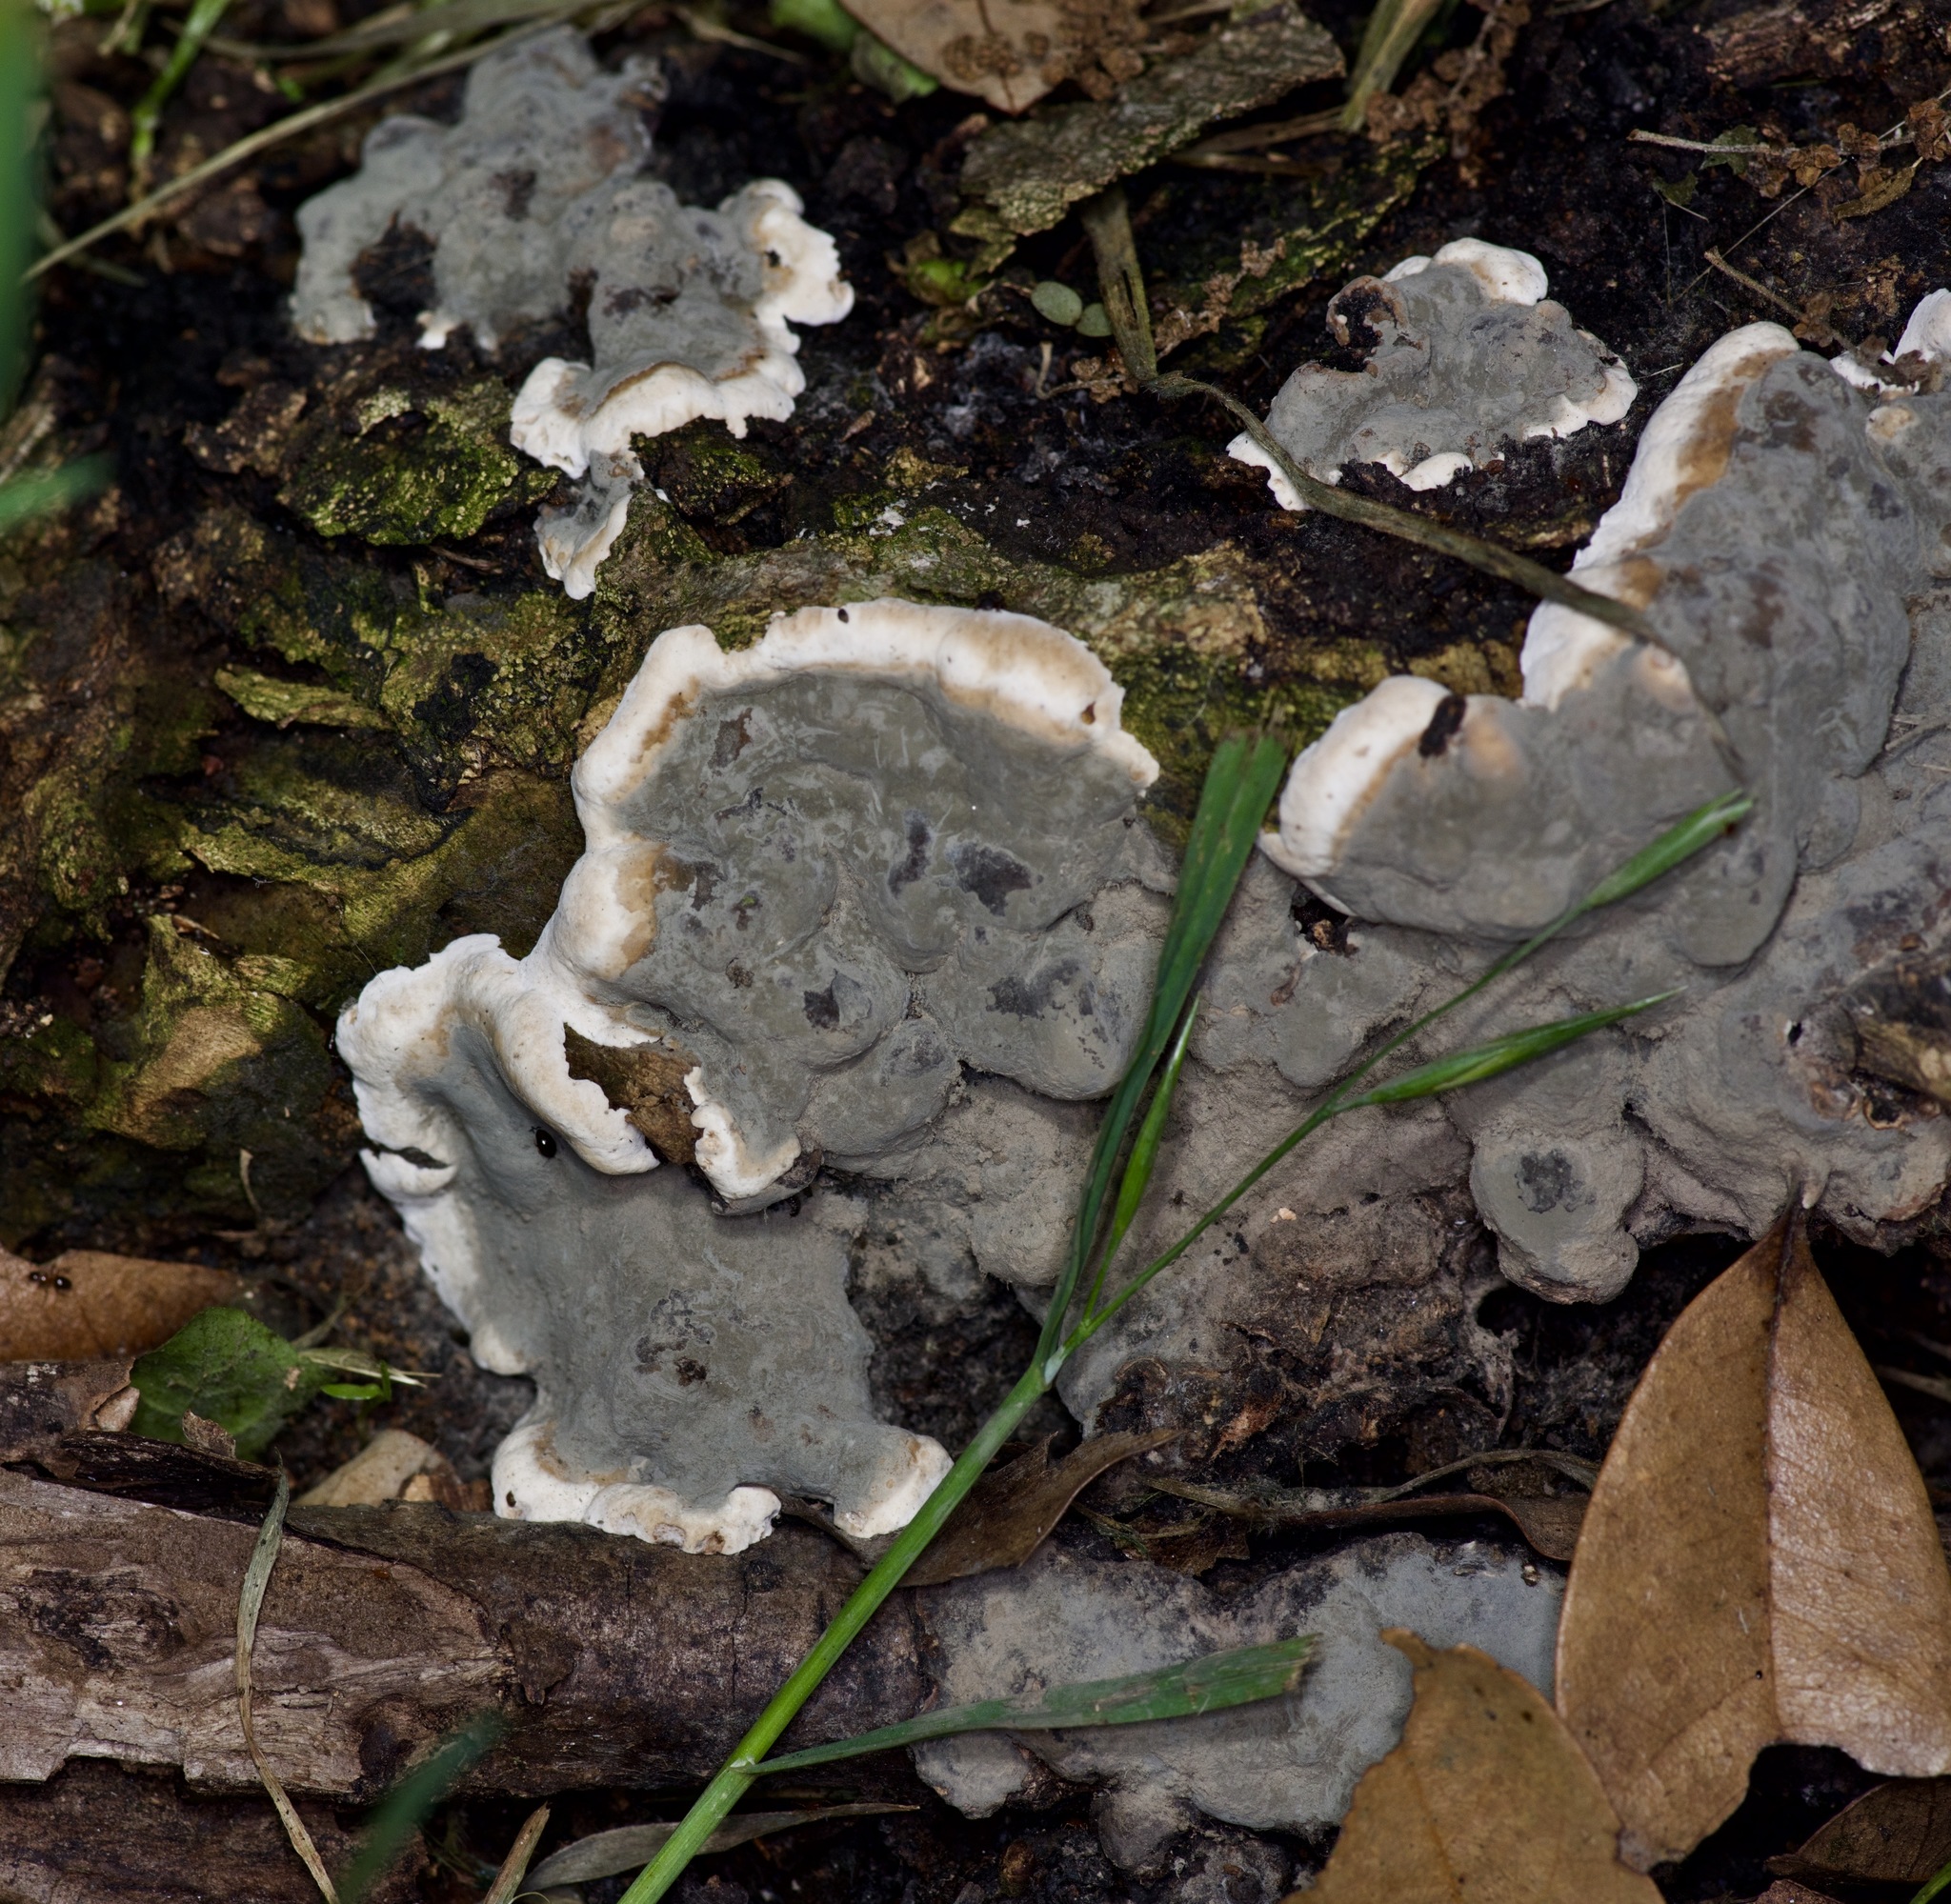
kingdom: Fungi
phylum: Ascomycota
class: Sordariomycetes
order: Xylariales
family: Xylariaceae
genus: Kretzschmaria
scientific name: Kretzschmaria deusta
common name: Brittle cinder
